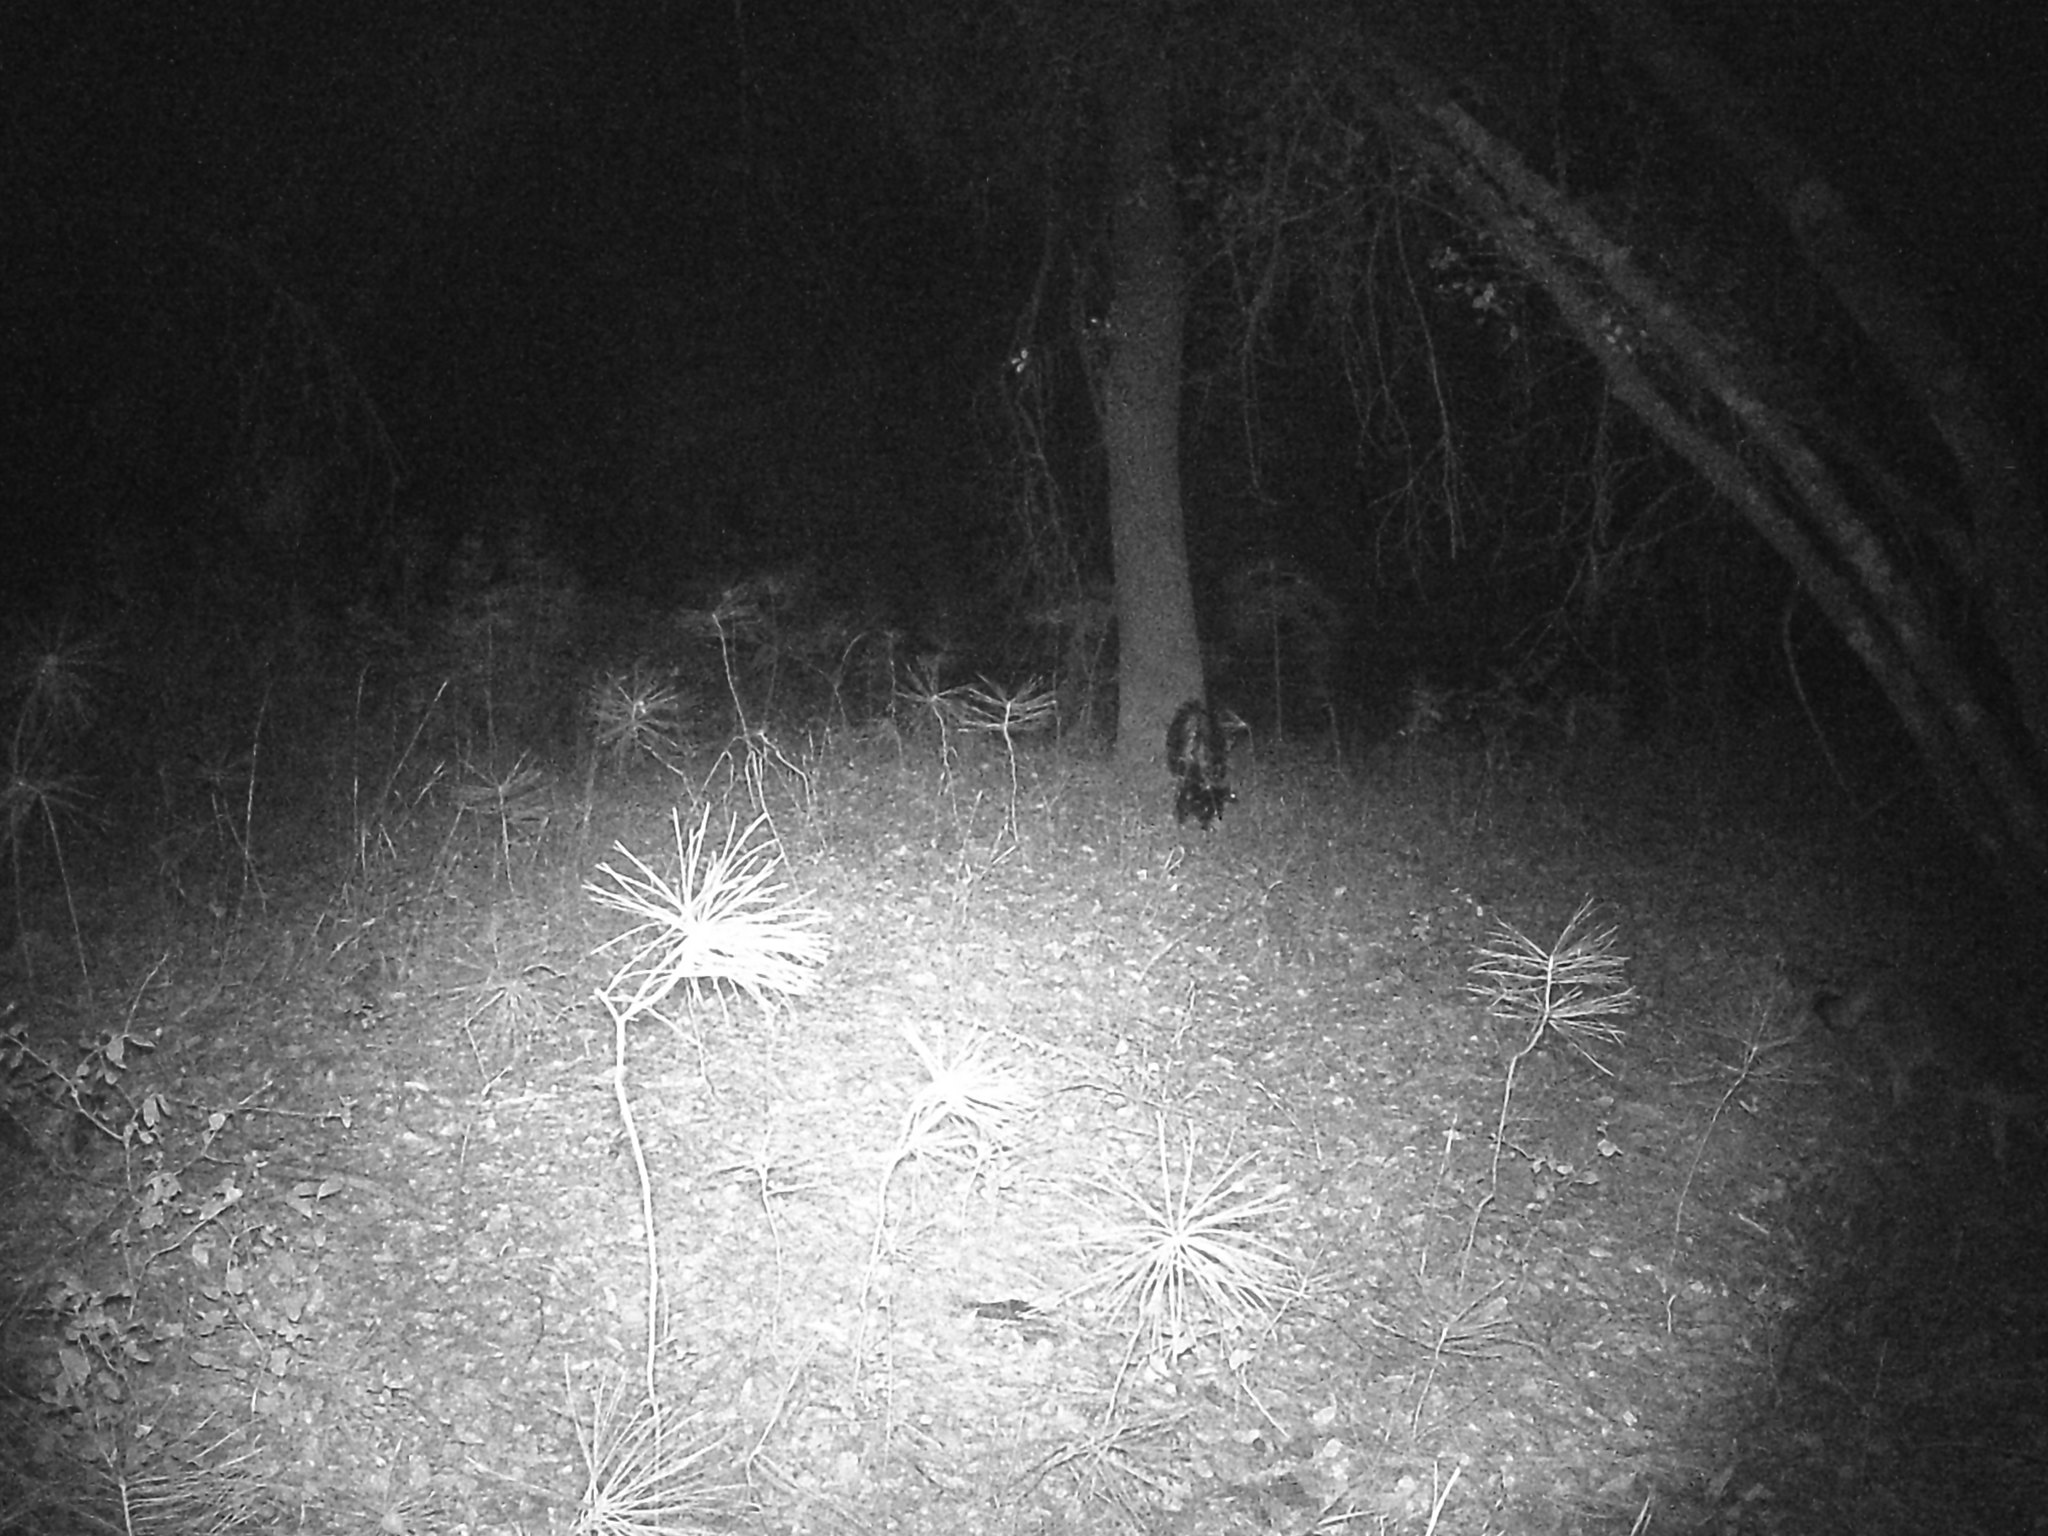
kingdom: Animalia
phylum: Chordata
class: Mammalia
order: Carnivora
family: Canidae
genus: Urocyon
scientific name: Urocyon cinereoargenteus
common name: Gray fox
